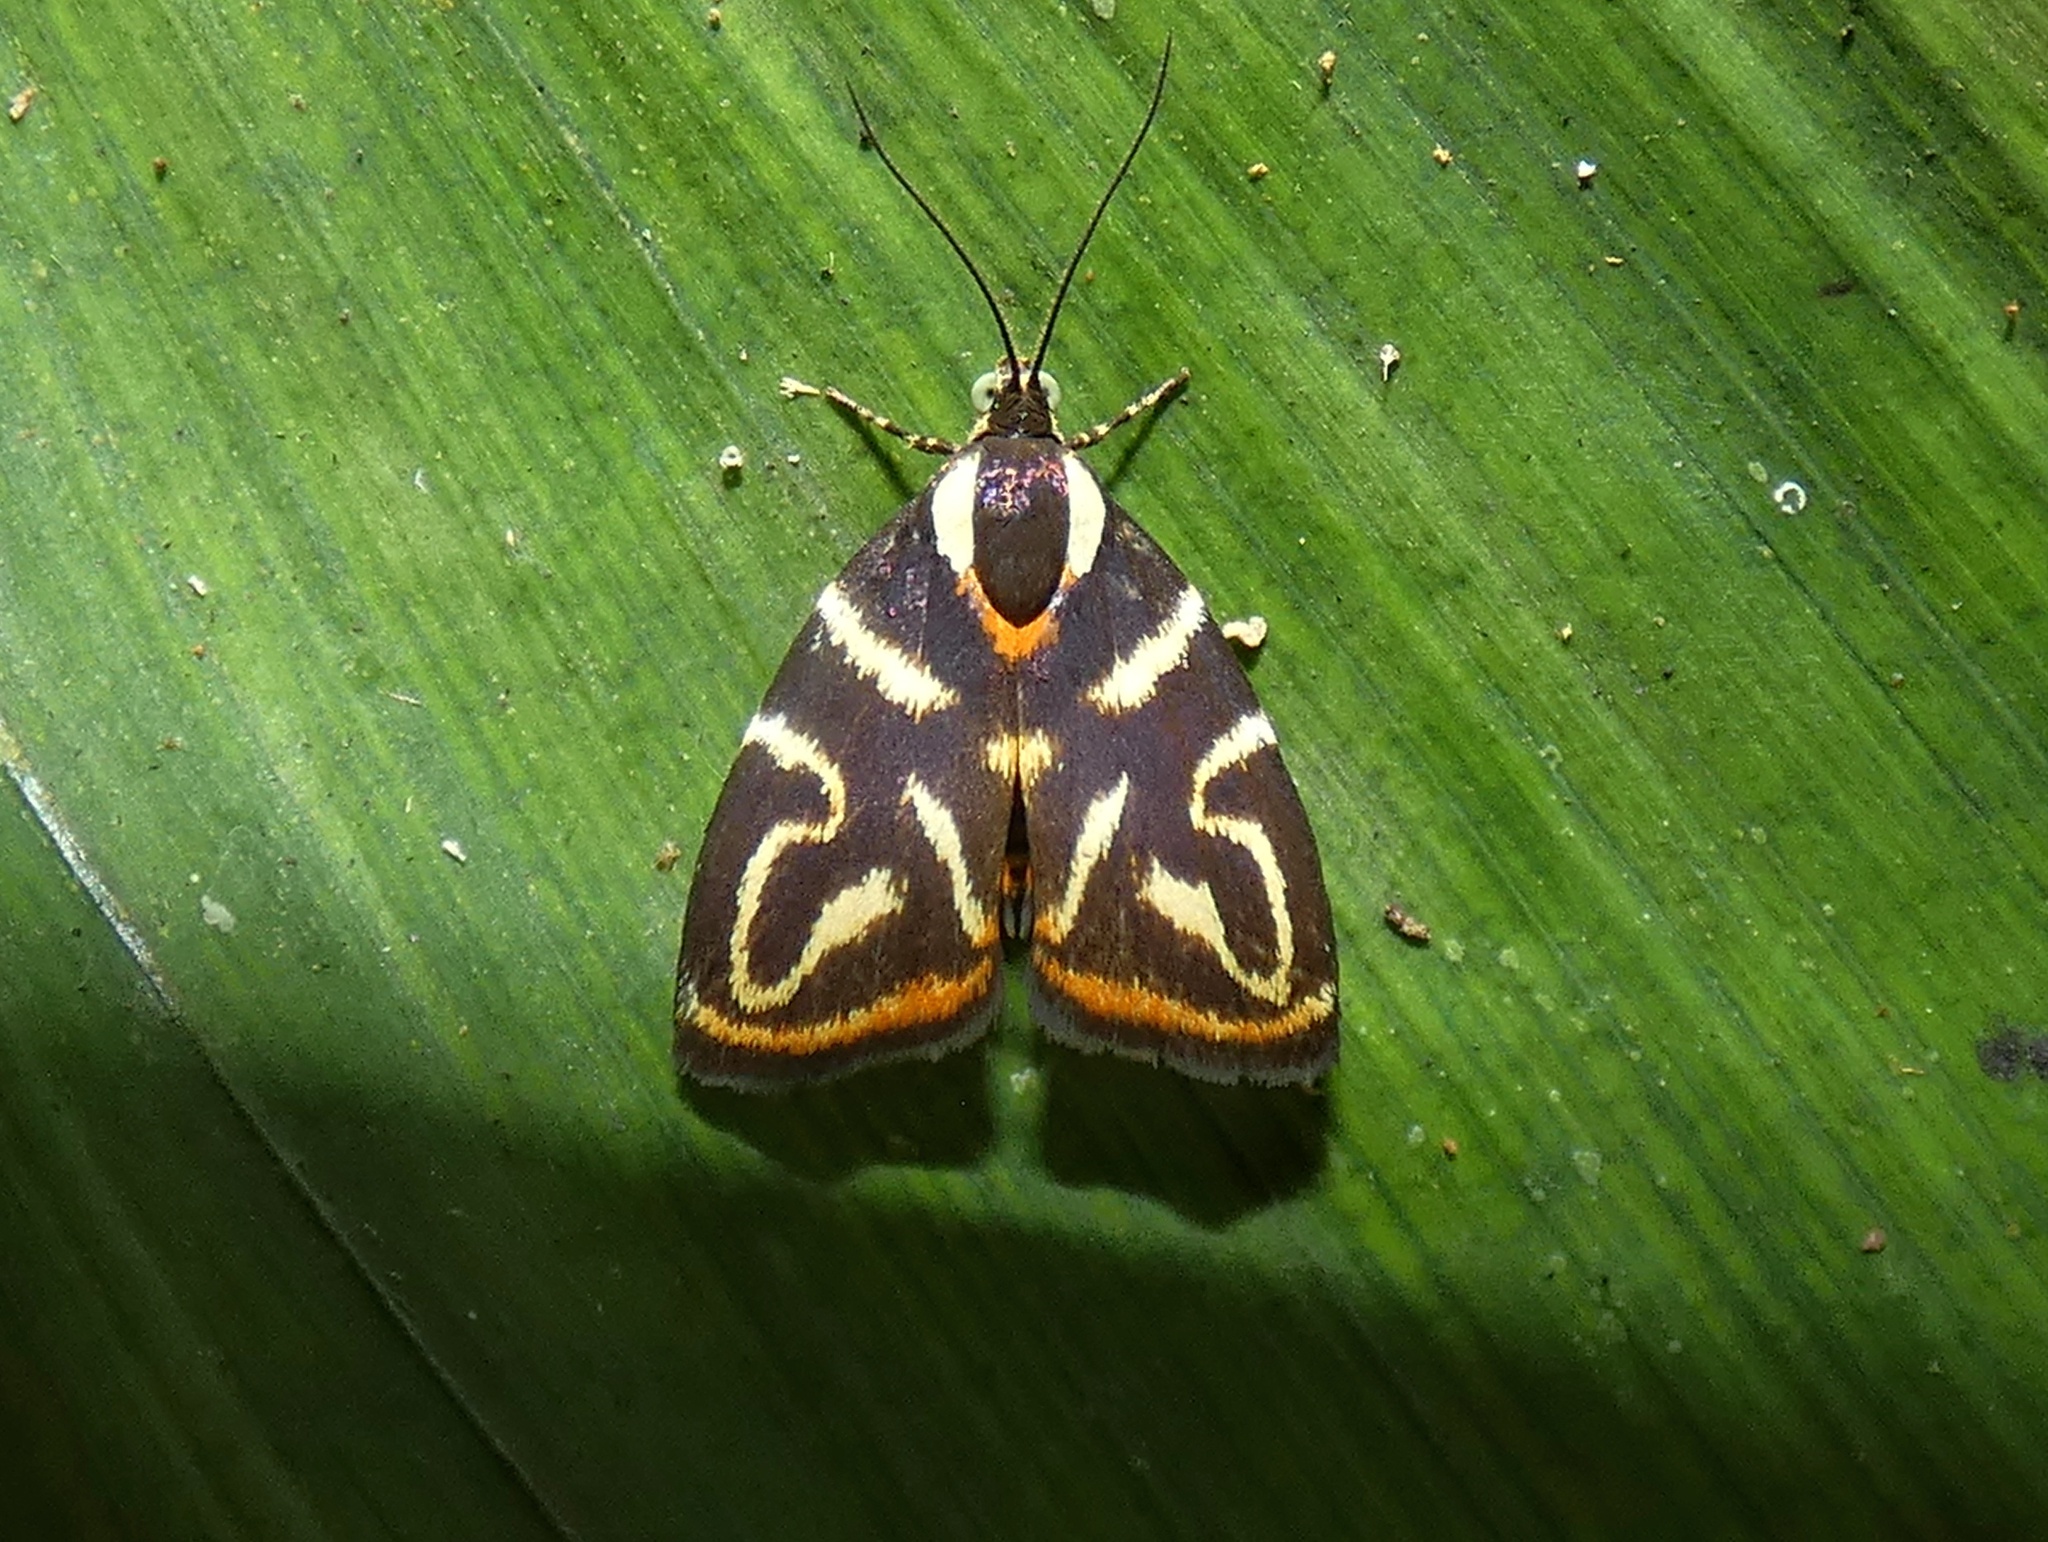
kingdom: Animalia
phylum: Arthropoda
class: Insecta
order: Lepidoptera
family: Choreutidae
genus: Anthophila
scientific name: Anthophila albertiana
